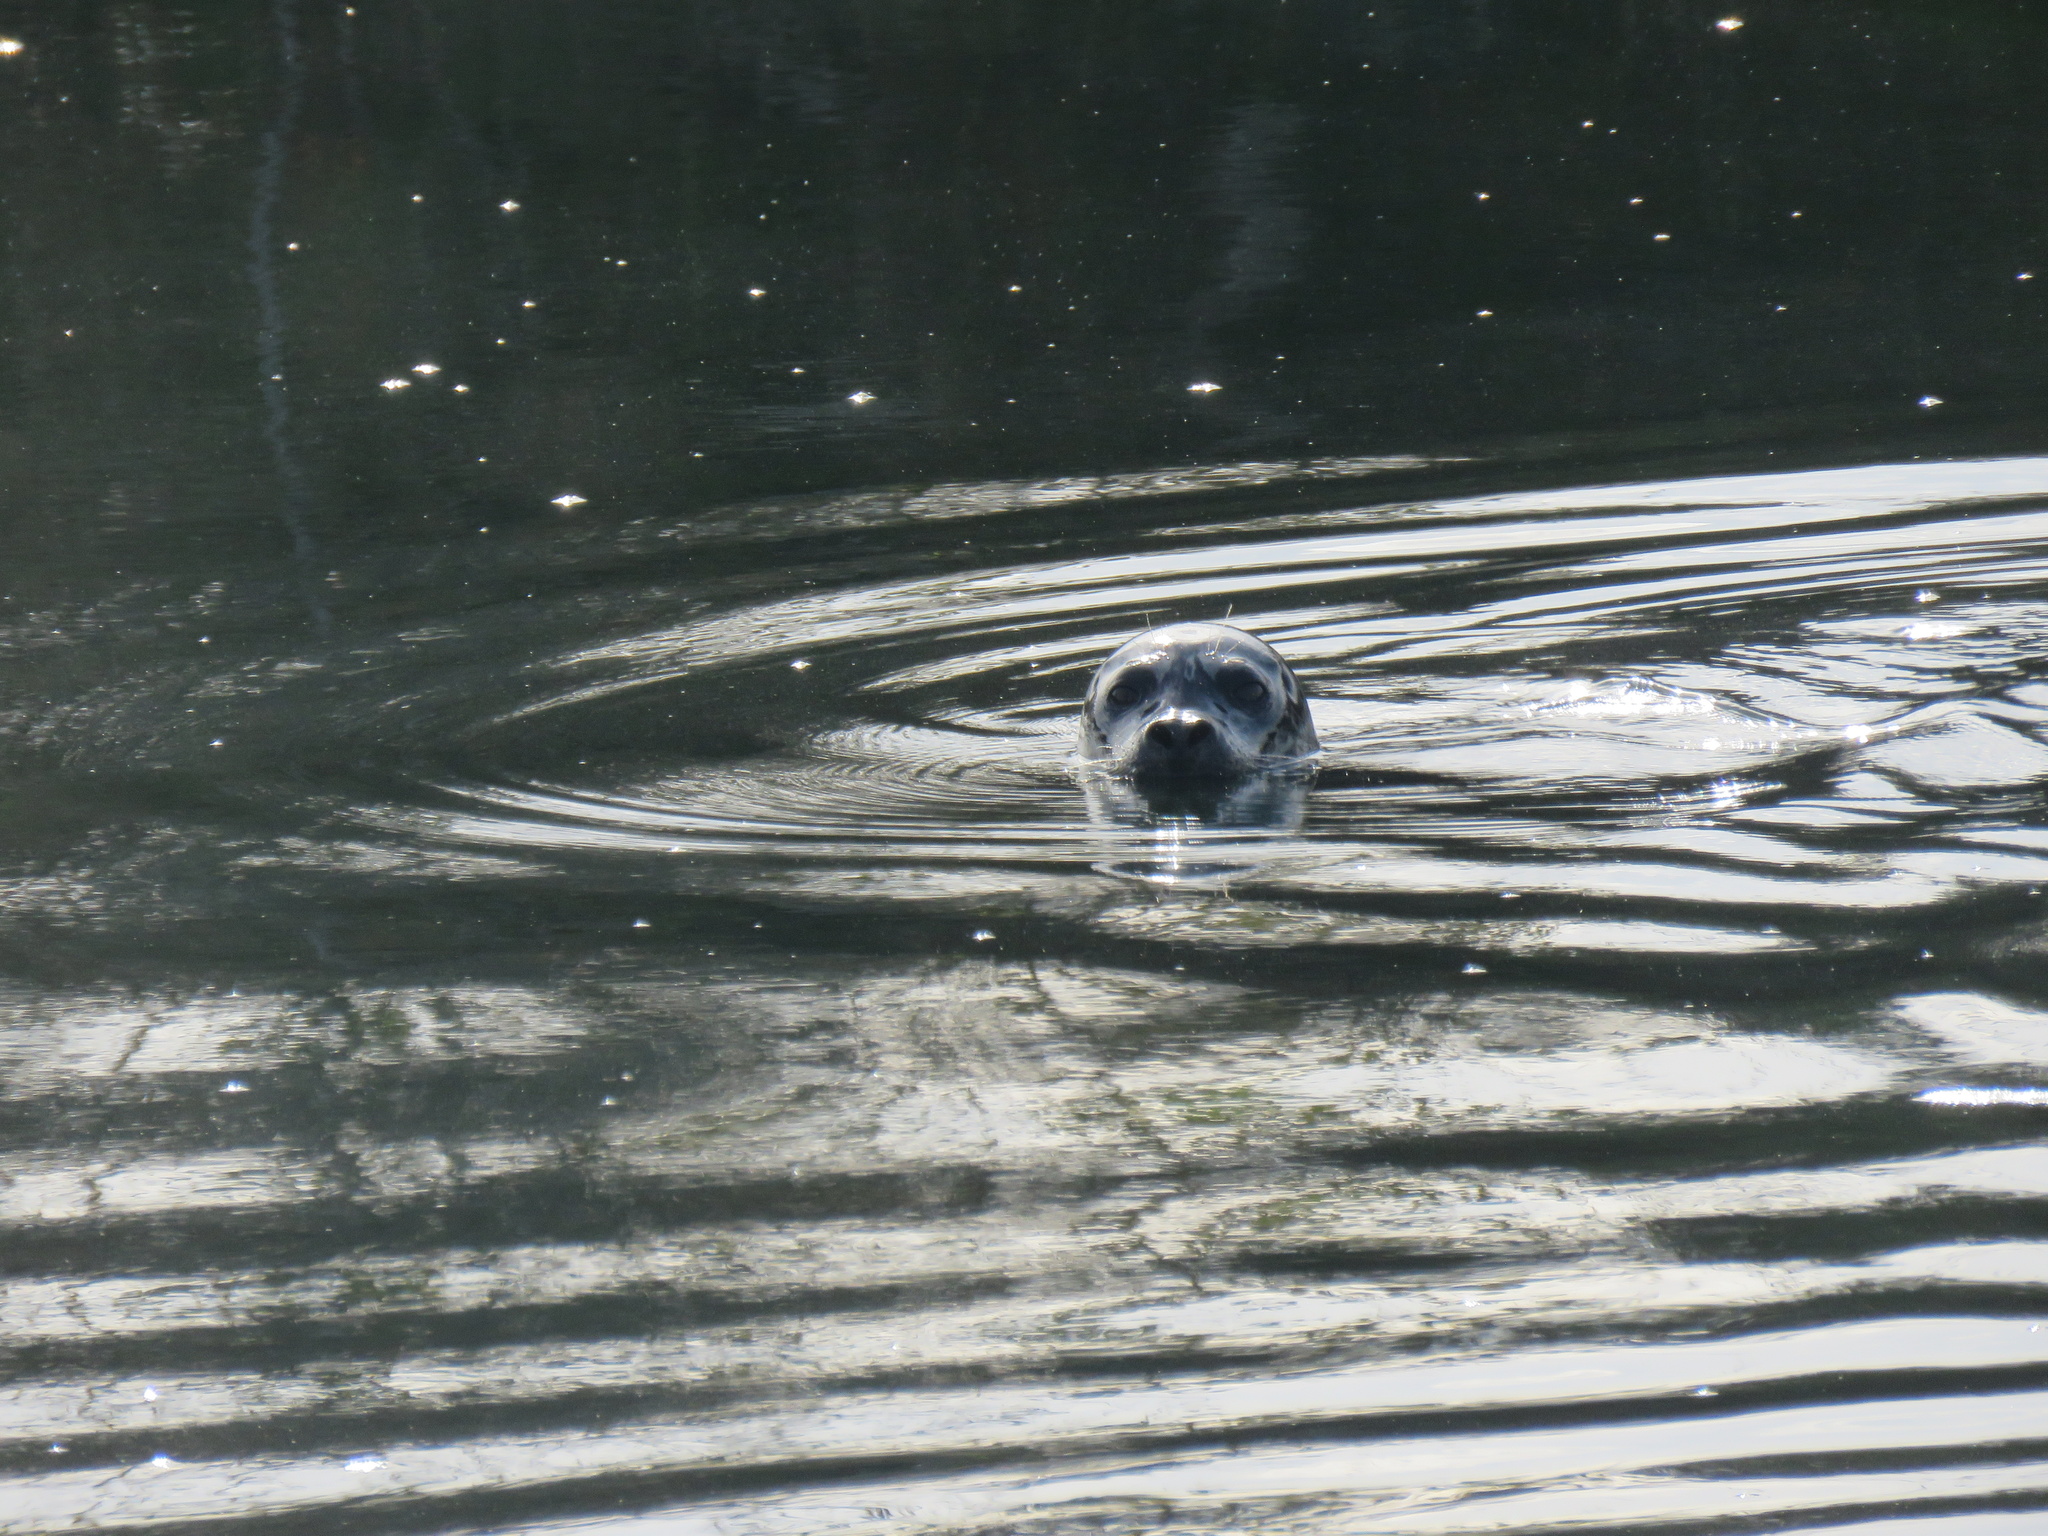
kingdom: Animalia
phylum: Chordata
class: Mammalia
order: Carnivora
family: Phocidae
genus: Phoca
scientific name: Phoca vitulina
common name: Harbor seal
